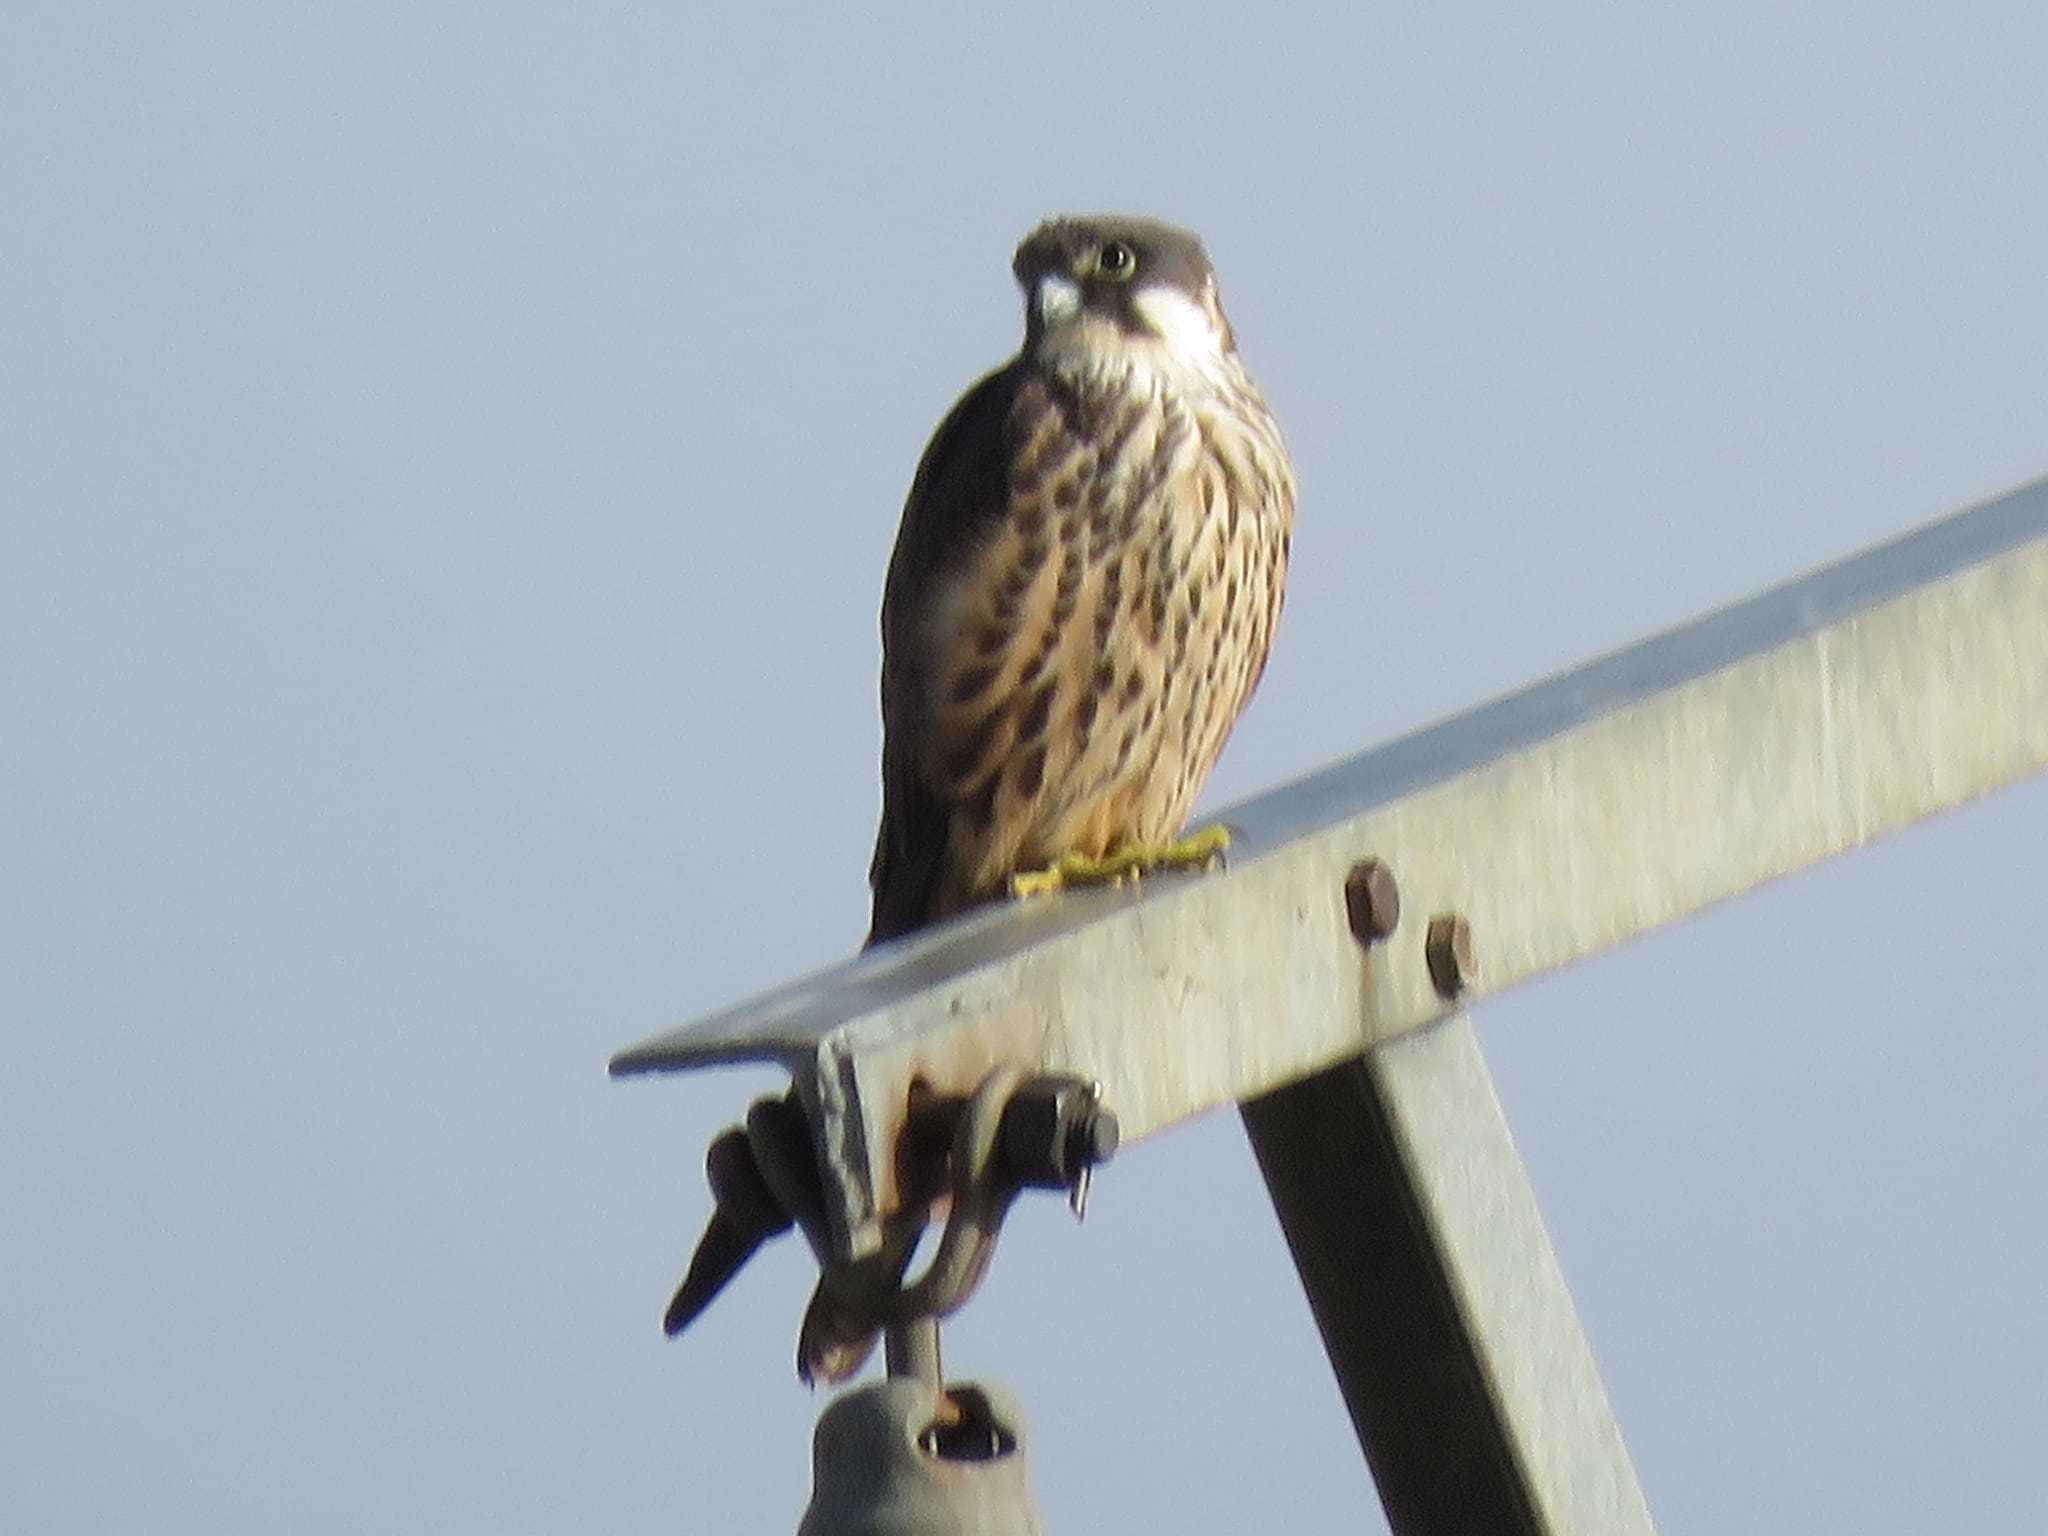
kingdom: Animalia
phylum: Chordata
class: Aves
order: Falconiformes
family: Falconidae
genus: Falco
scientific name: Falco eleonorae
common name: Eleonora's falcon
